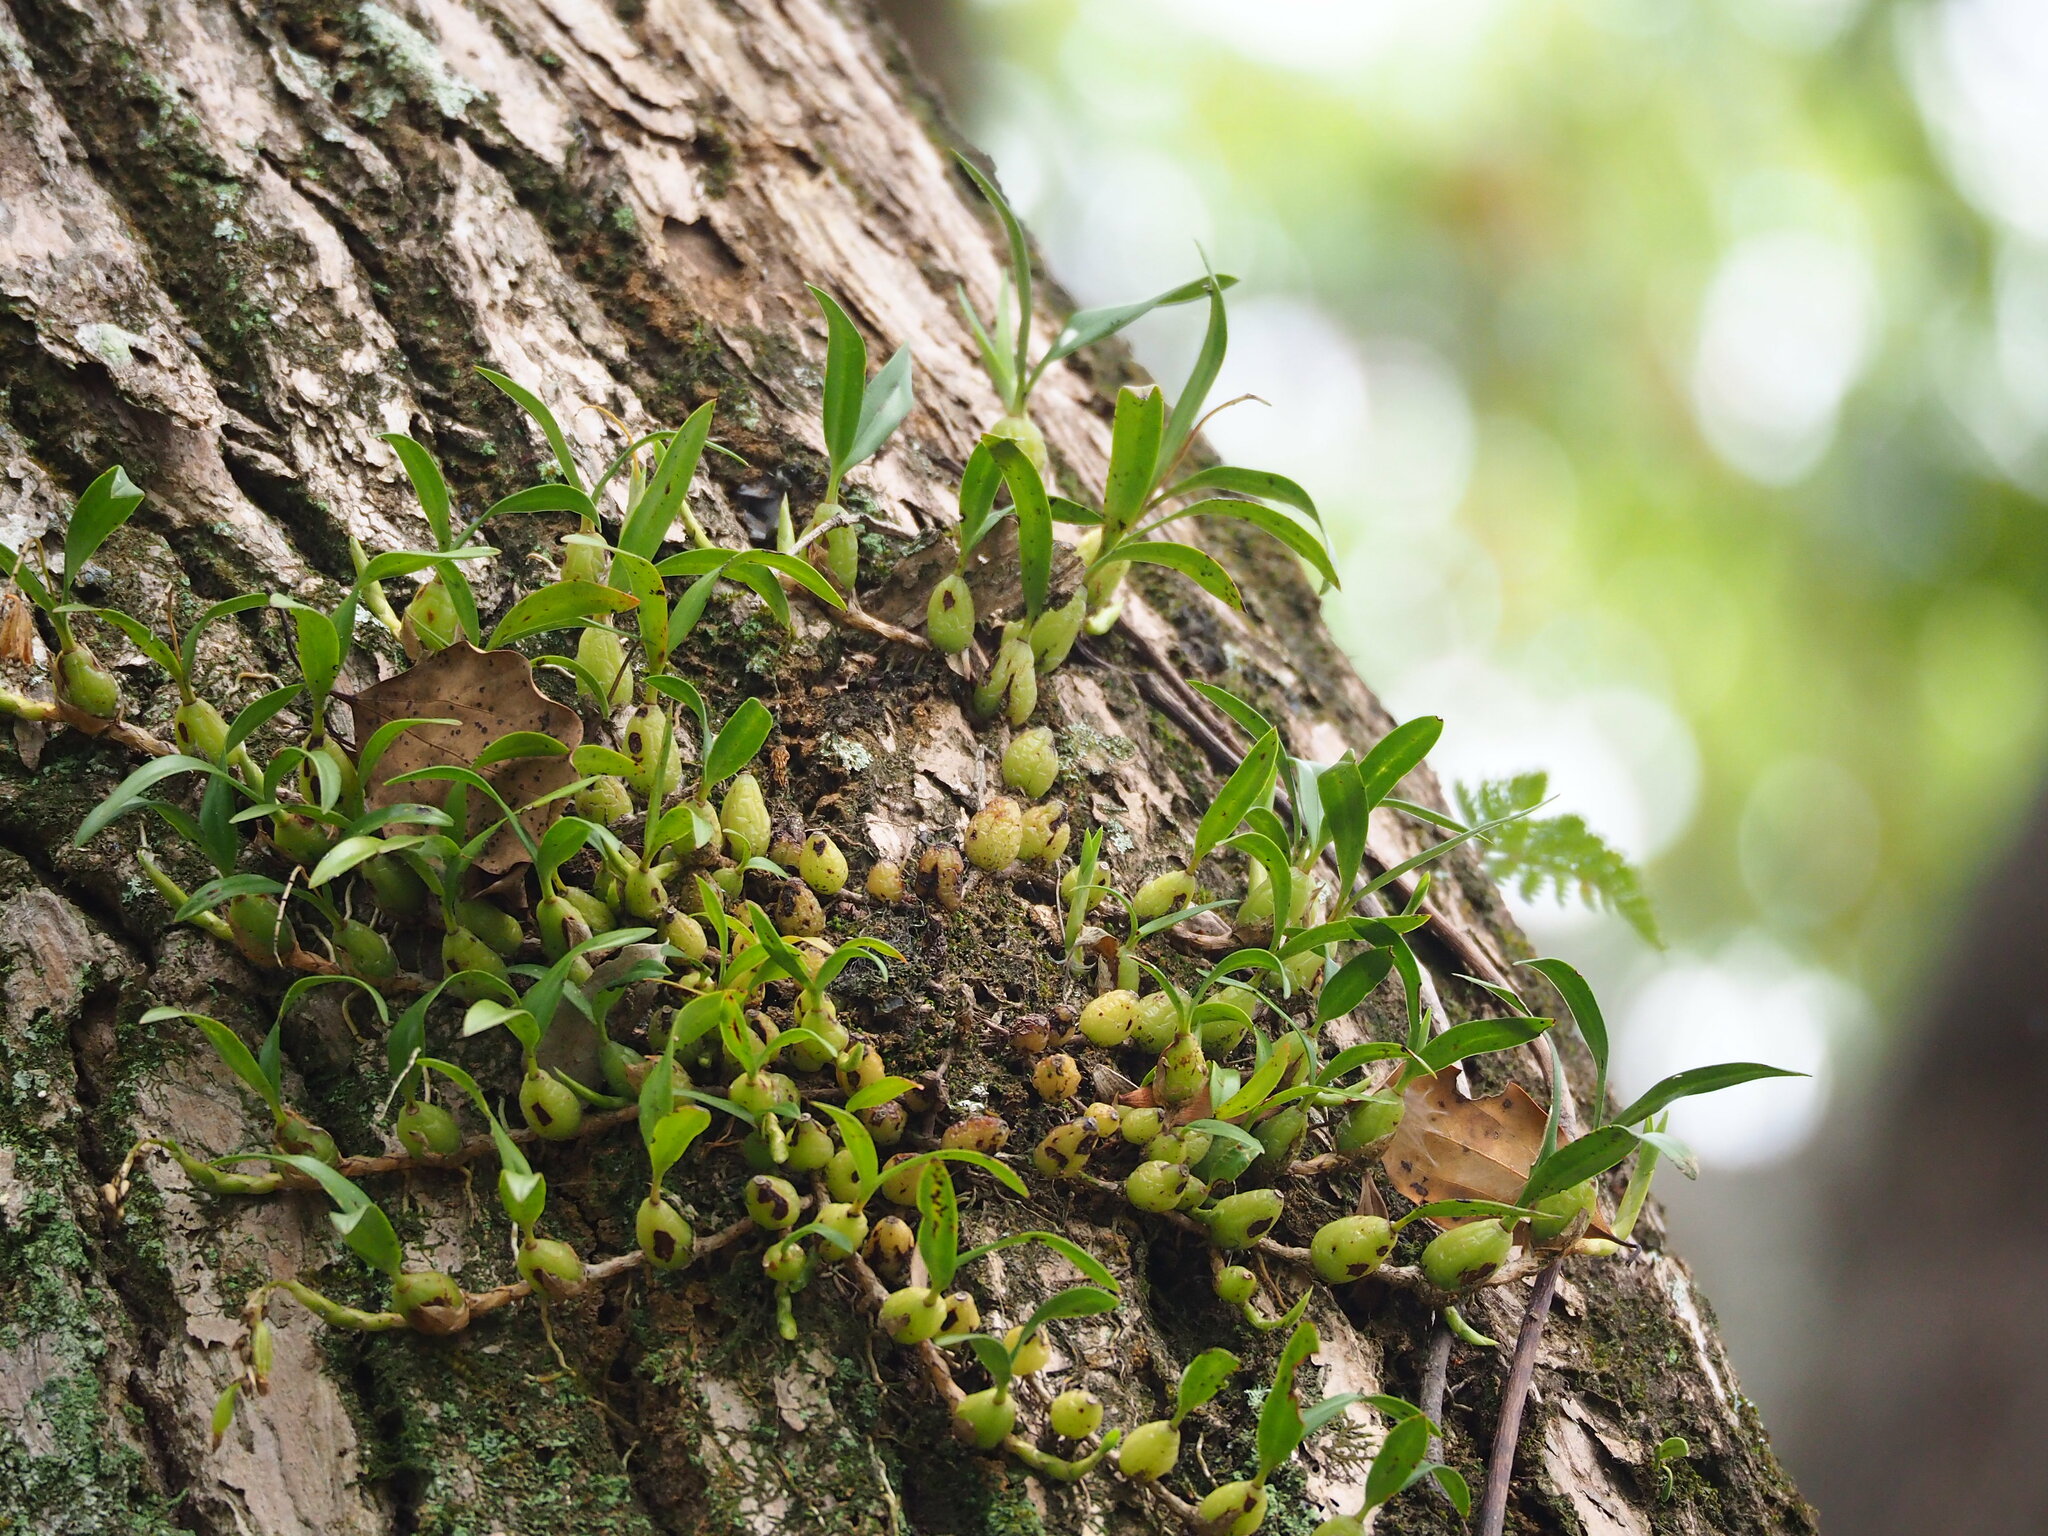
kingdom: Plantae
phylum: Tracheophyta
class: Liliopsida
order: Asparagales
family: Orchidaceae
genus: Coelogyne
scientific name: Coelogyne cantonensis
